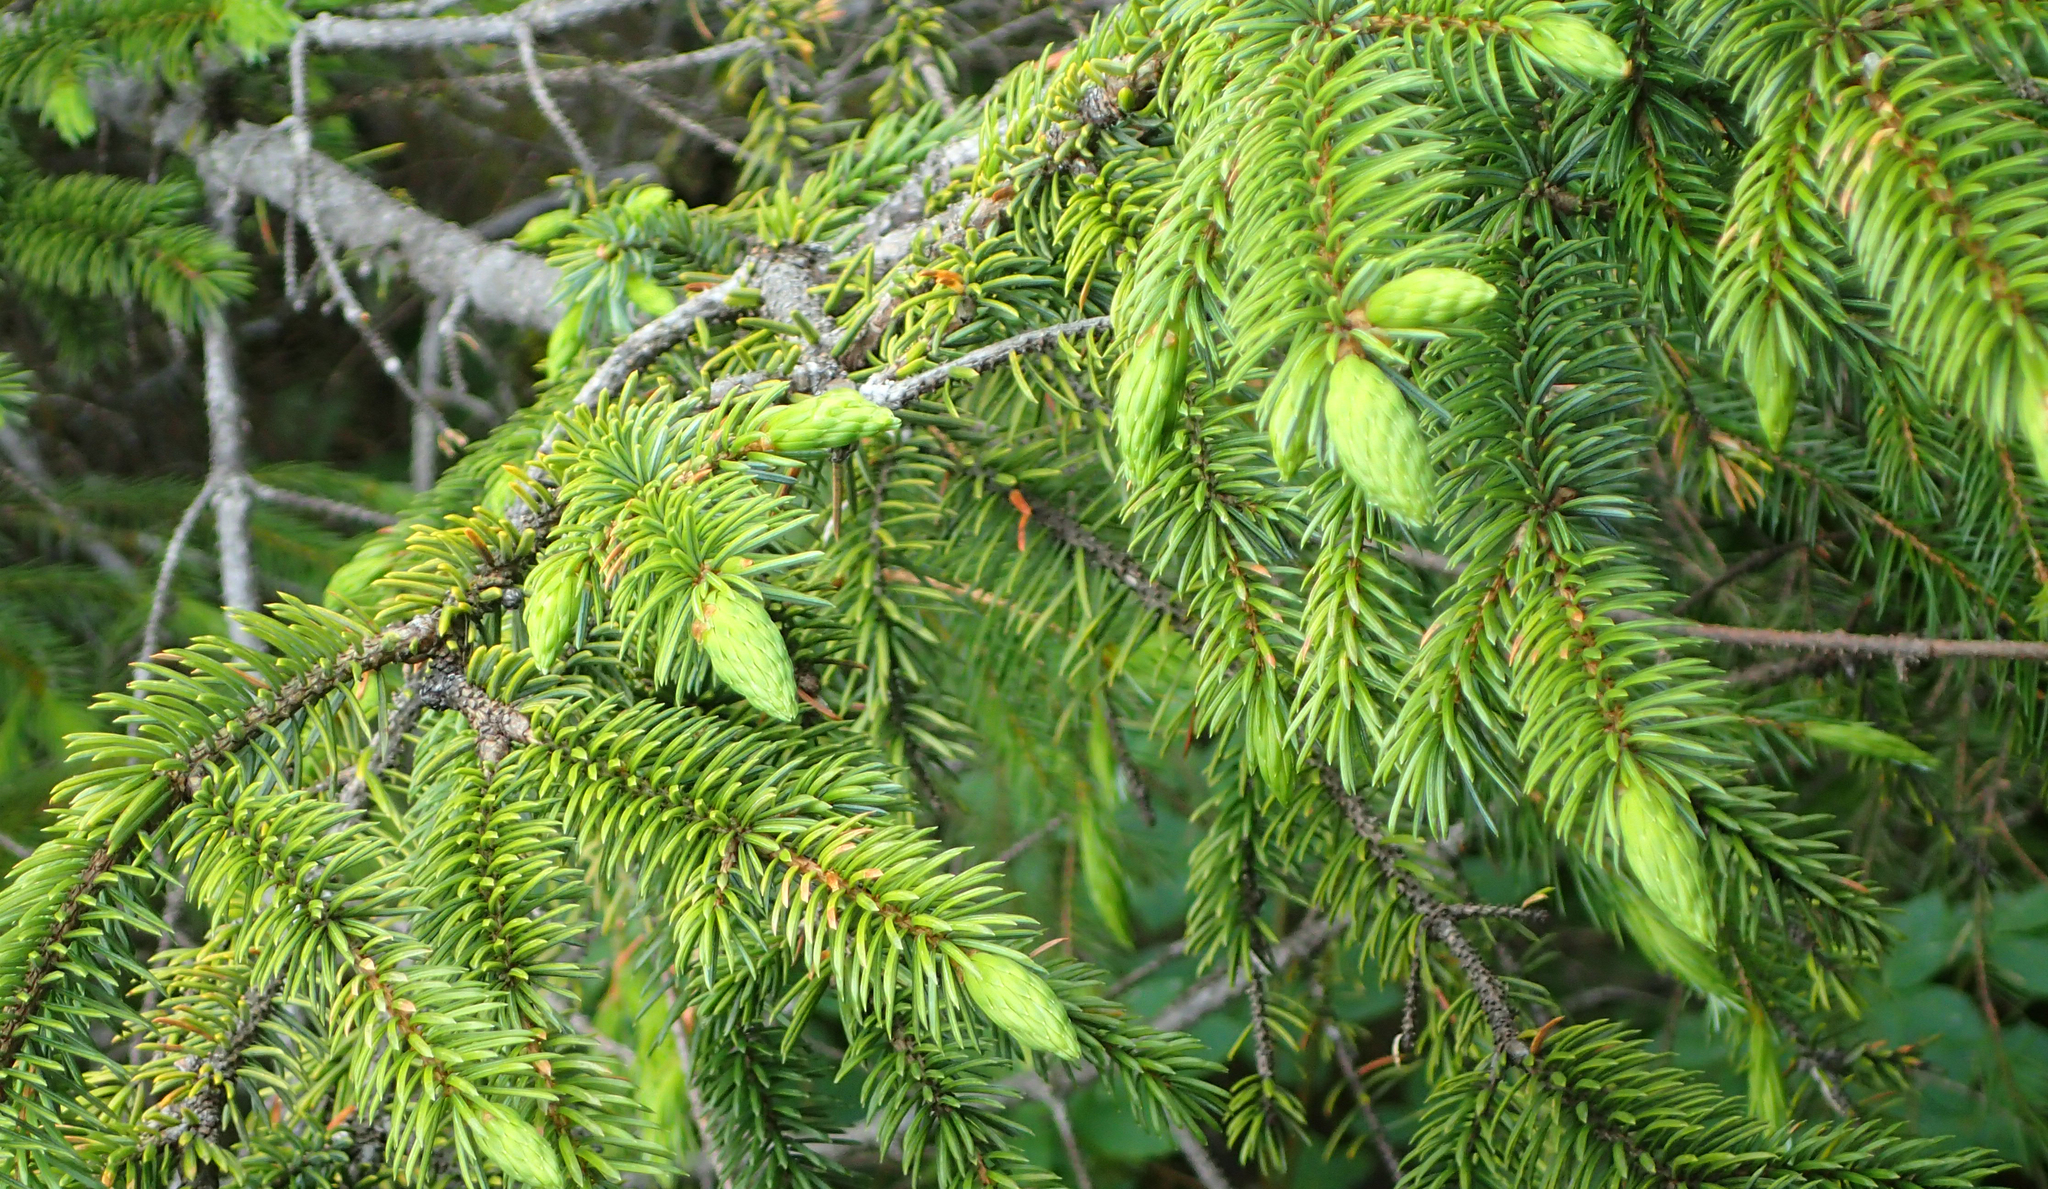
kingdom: Plantae
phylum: Tracheophyta
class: Pinopsida
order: Pinales
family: Pinaceae
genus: Picea
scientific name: Picea sitchensis
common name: Sitka spruce
